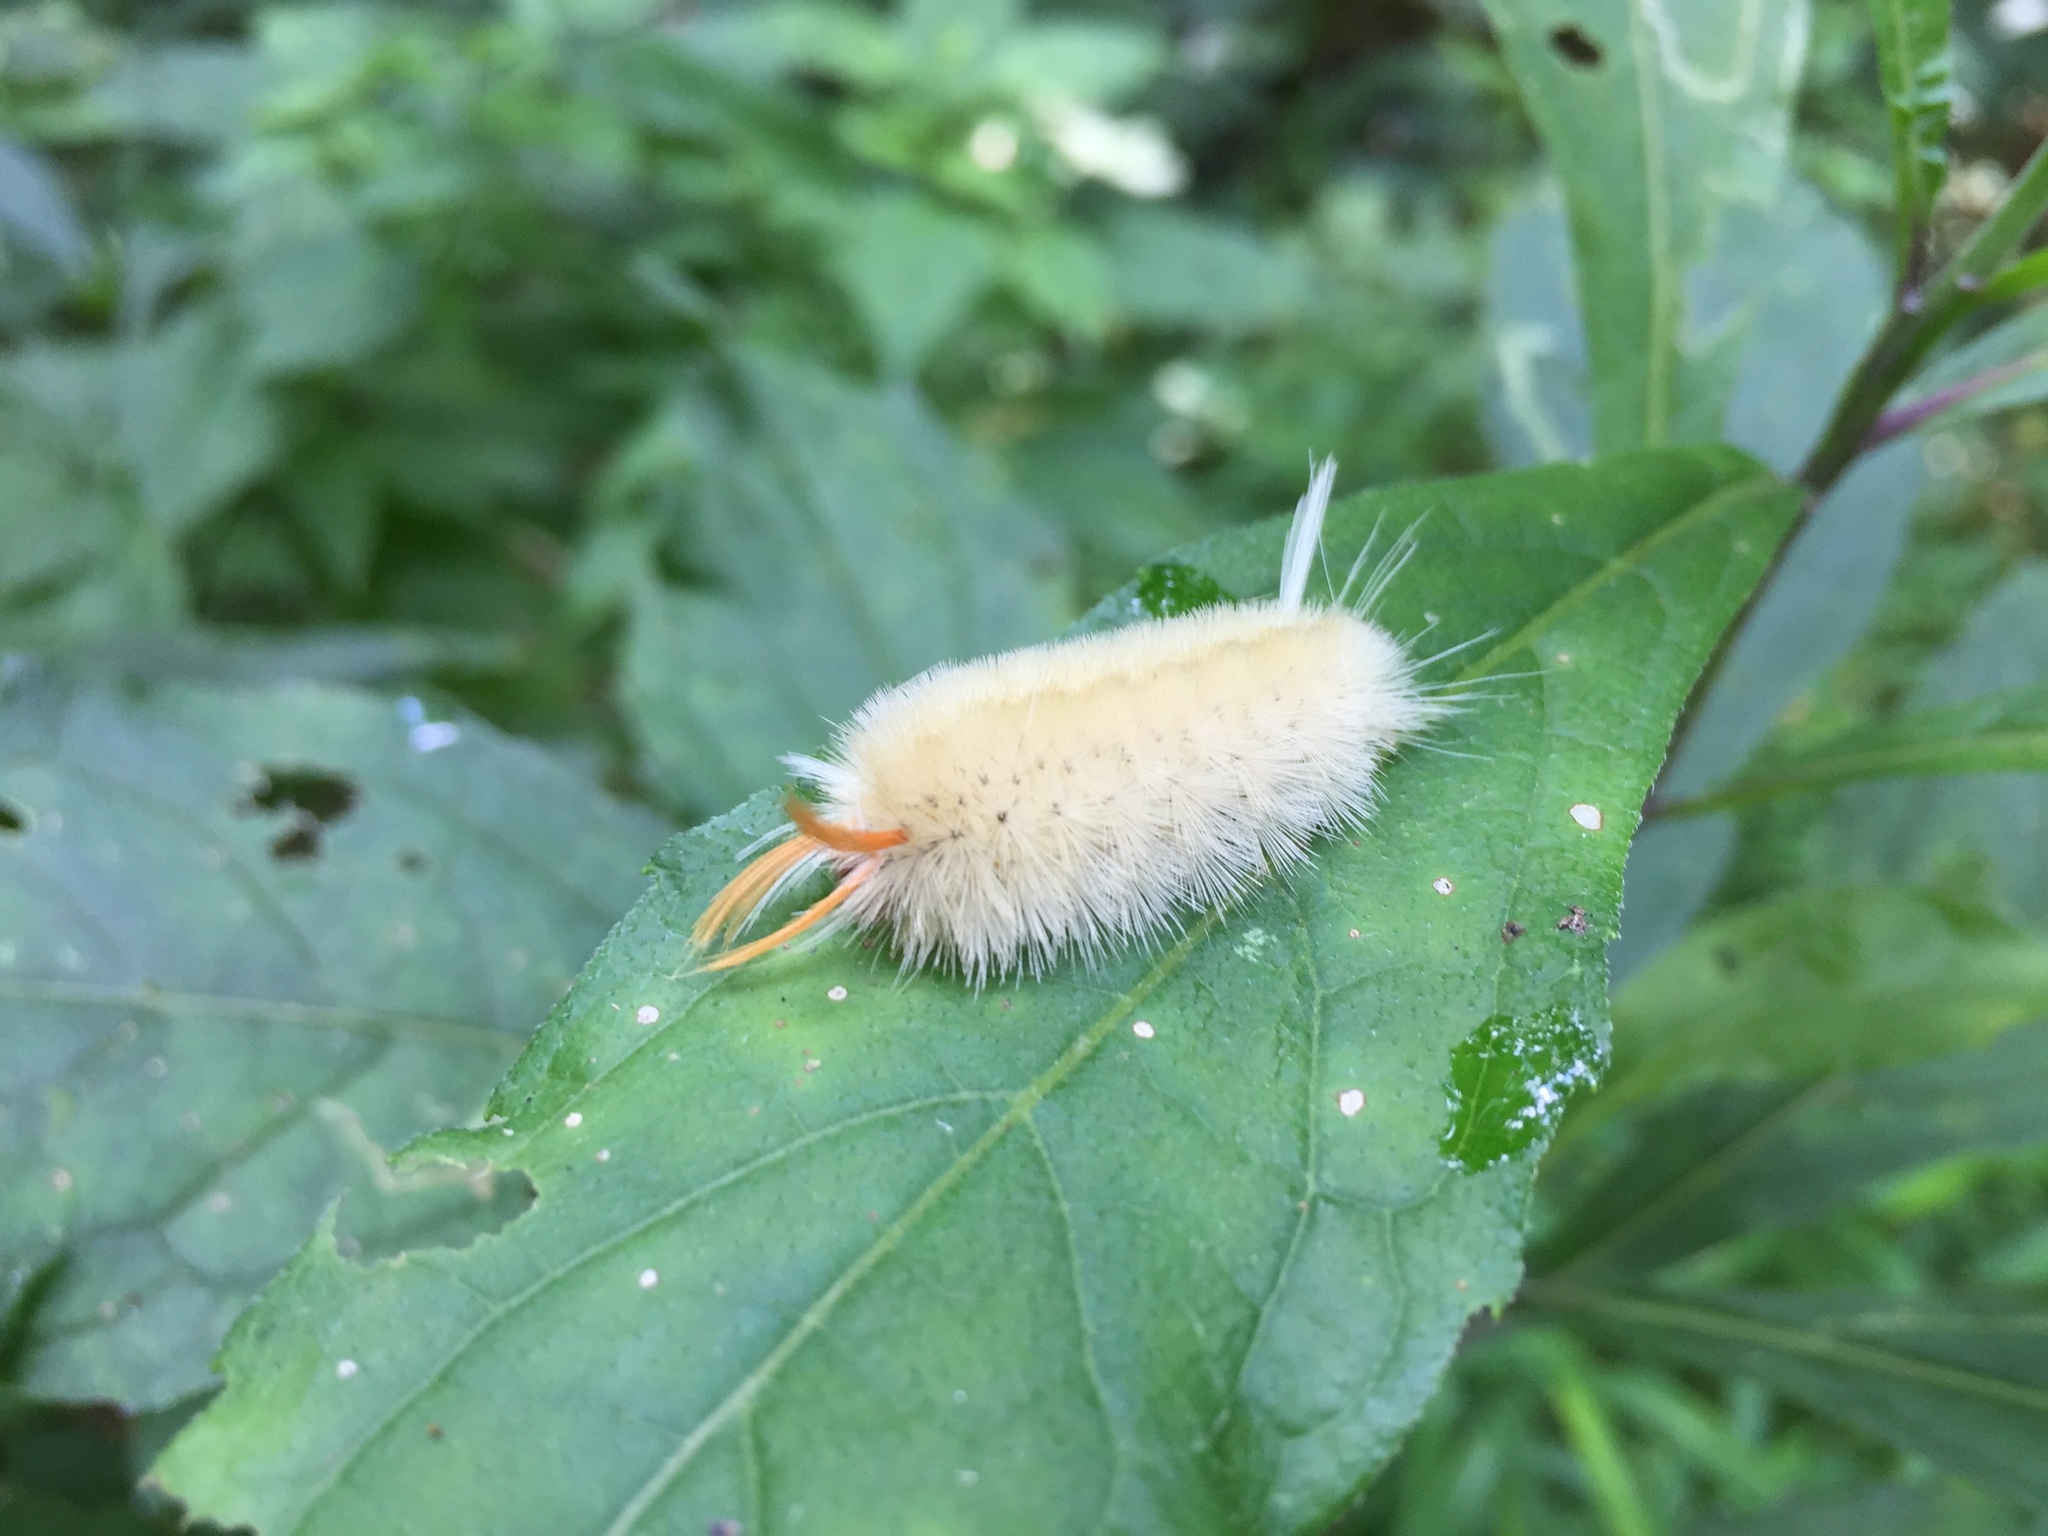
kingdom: Animalia
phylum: Arthropoda
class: Insecta
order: Lepidoptera
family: Erebidae
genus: Halysidota
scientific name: Halysidota harrisii
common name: Sycamore tussock moth
